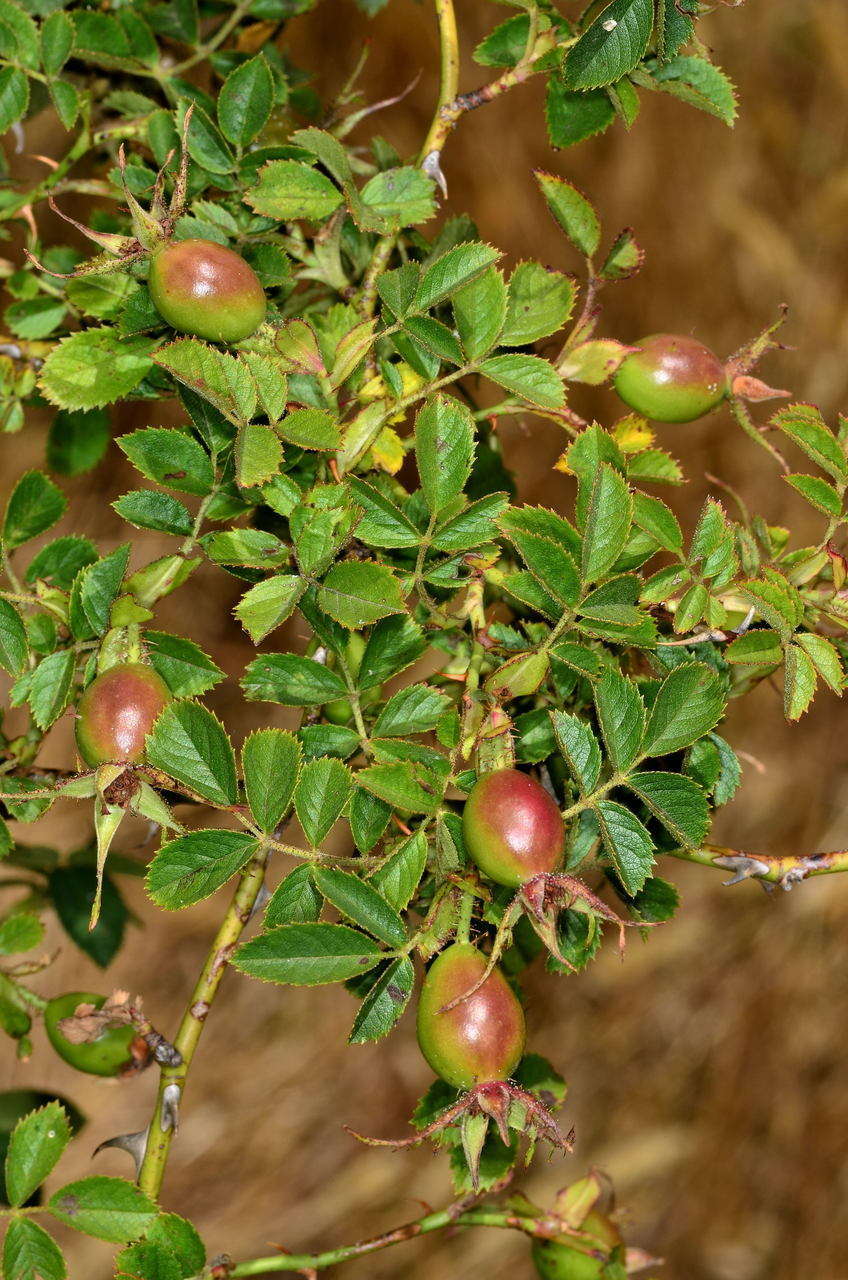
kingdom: Plantae
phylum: Tracheophyta
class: Magnoliopsida
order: Rosales
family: Rosaceae
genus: Rosa
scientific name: Rosa rubiginosa
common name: Sweet-briar
